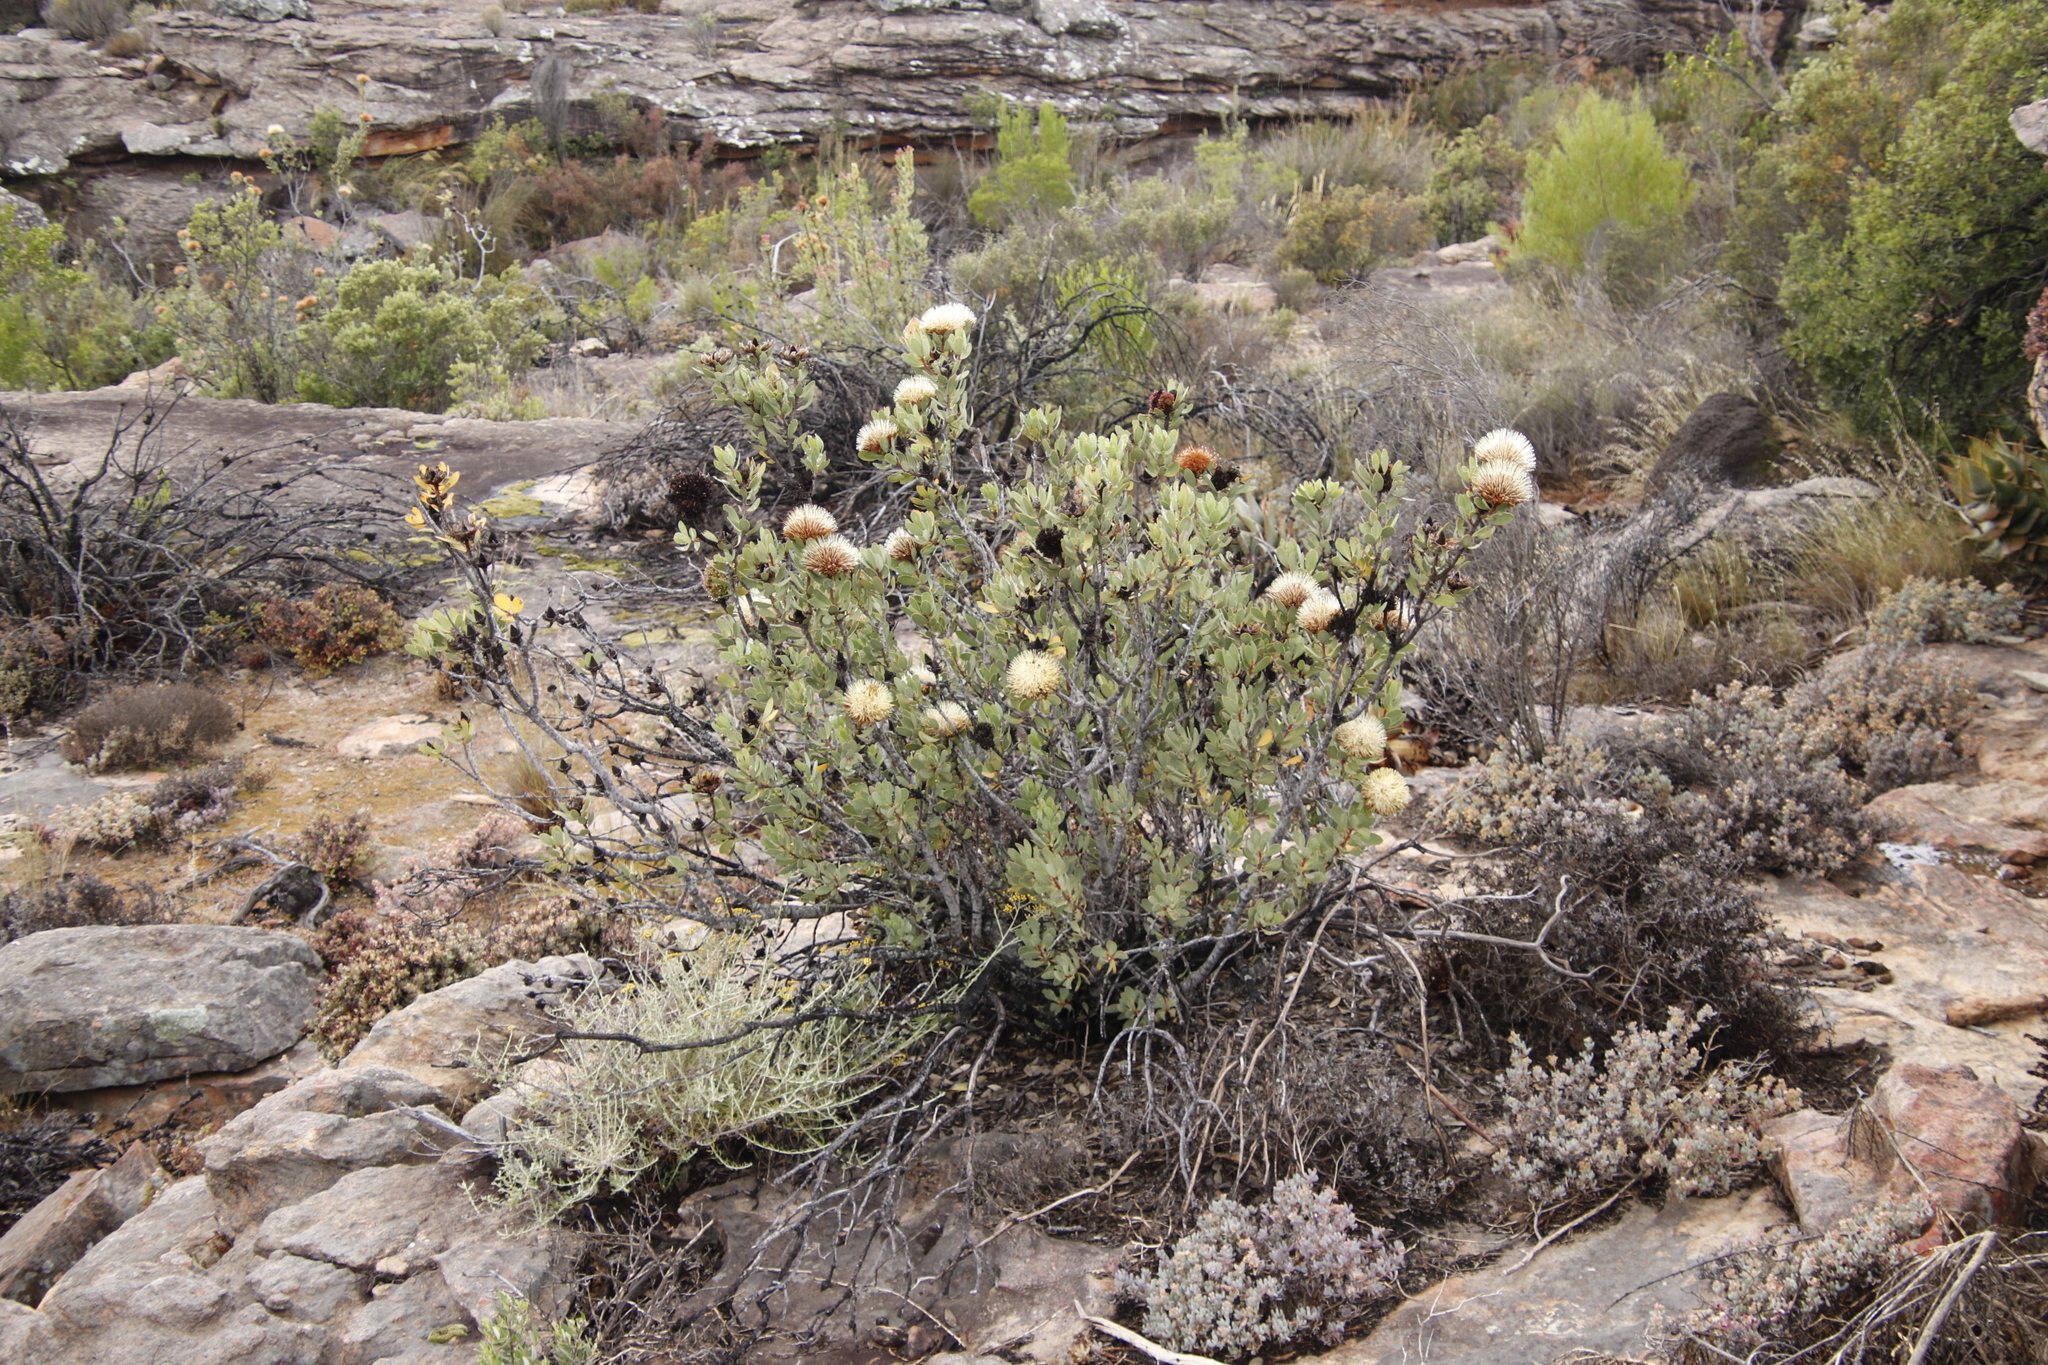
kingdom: Plantae
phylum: Tracheophyta
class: Magnoliopsida
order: Proteales
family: Proteaceae
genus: Protea
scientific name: Protea glabra
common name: Chestnut sugarbush
